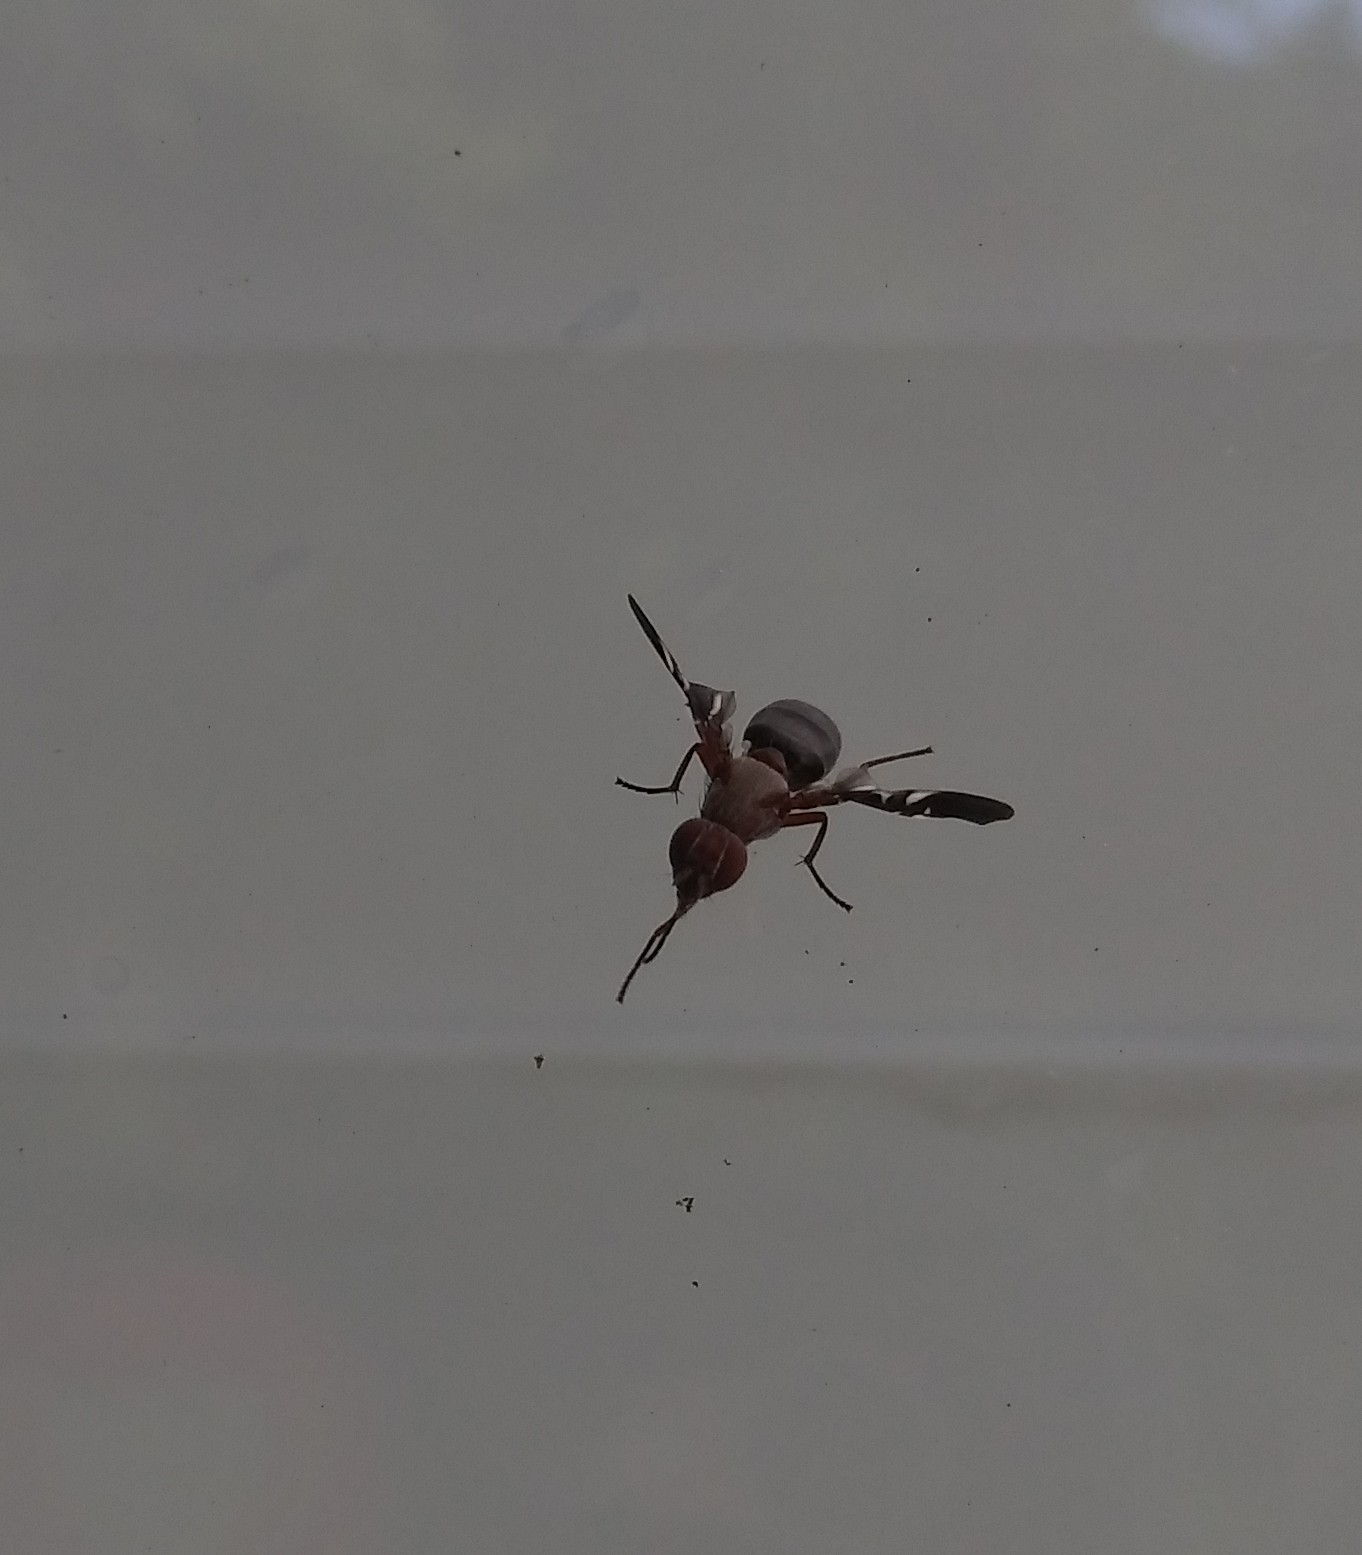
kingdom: Animalia
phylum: Arthropoda
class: Insecta
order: Diptera
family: Ulidiidae
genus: Delphinia
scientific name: Delphinia picta
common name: Common picture-winged fly
